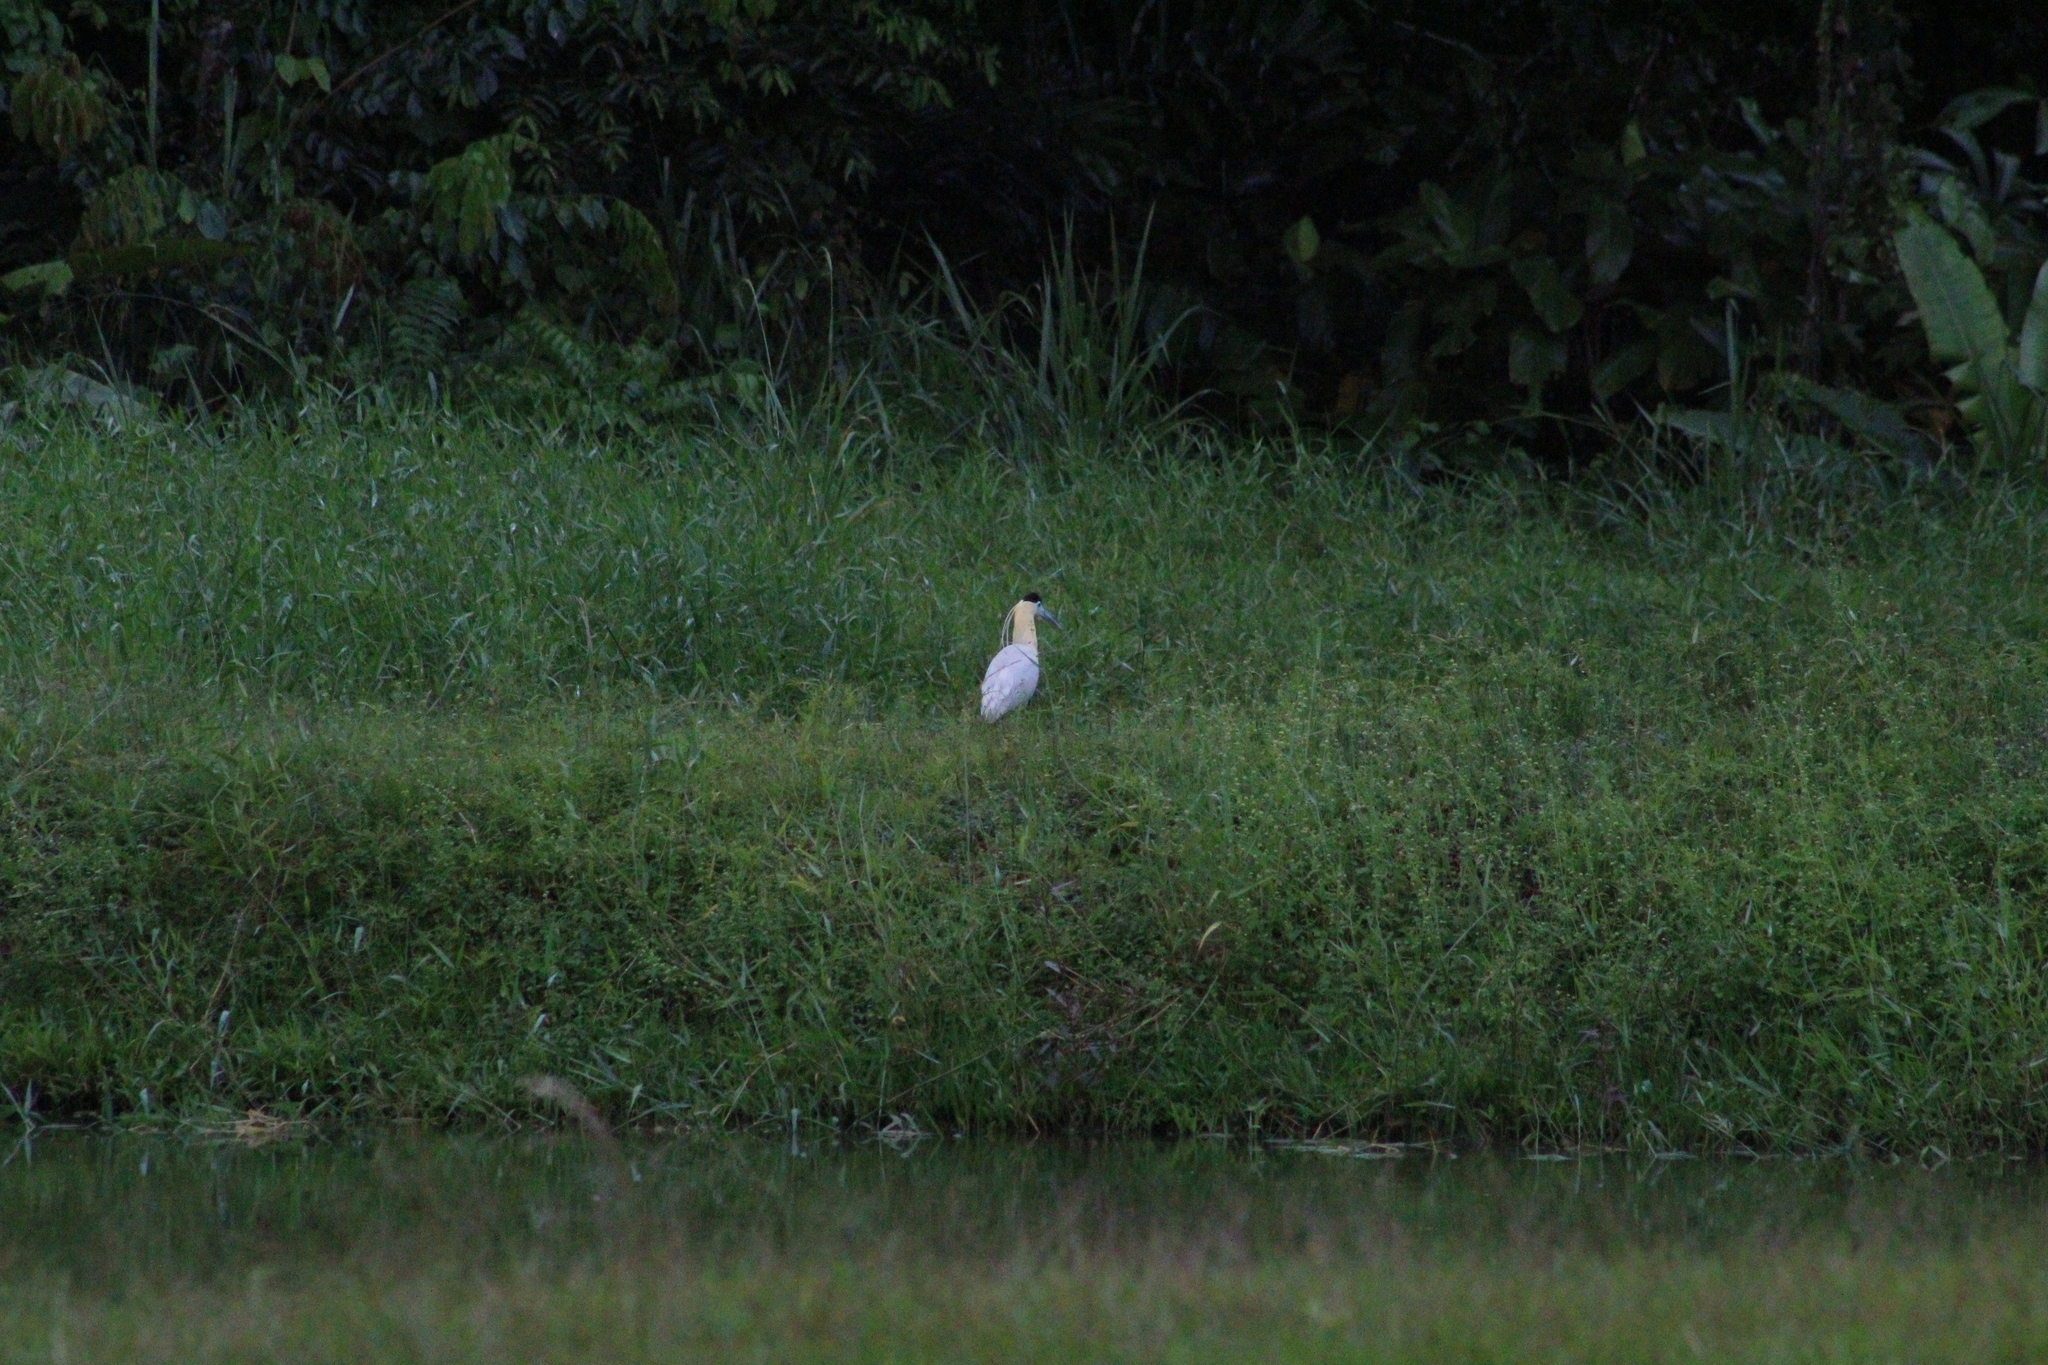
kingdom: Animalia
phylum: Chordata
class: Aves
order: Pelecaniformes
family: Ardeidae
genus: Pilherodius
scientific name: Pilherodius pileatus
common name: Capped heron
